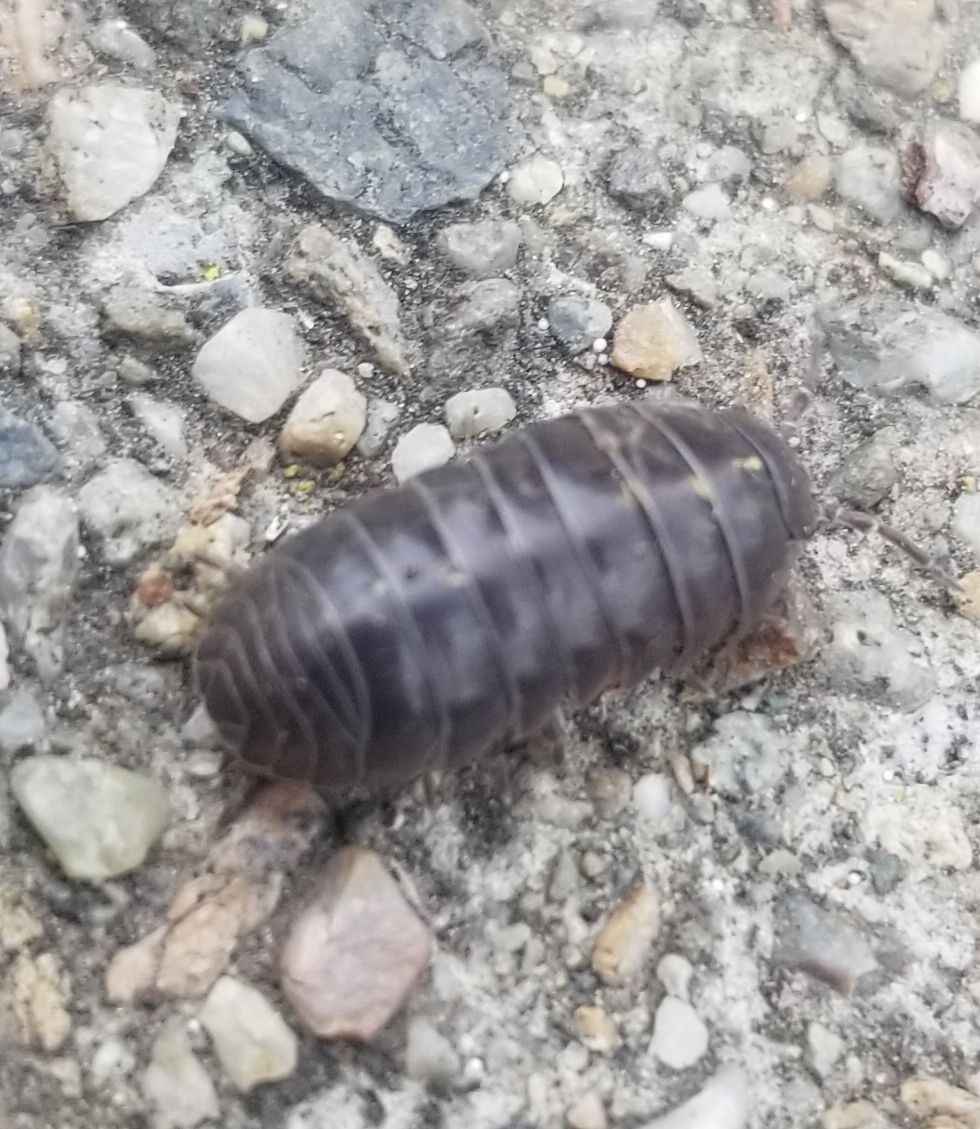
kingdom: Animalia
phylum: Arthropoda
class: Malacostraca
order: Isopoda
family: Armadillidiidae
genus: Armadillidium
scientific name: Armadillidium vulgare
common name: Common pill woodlouse
